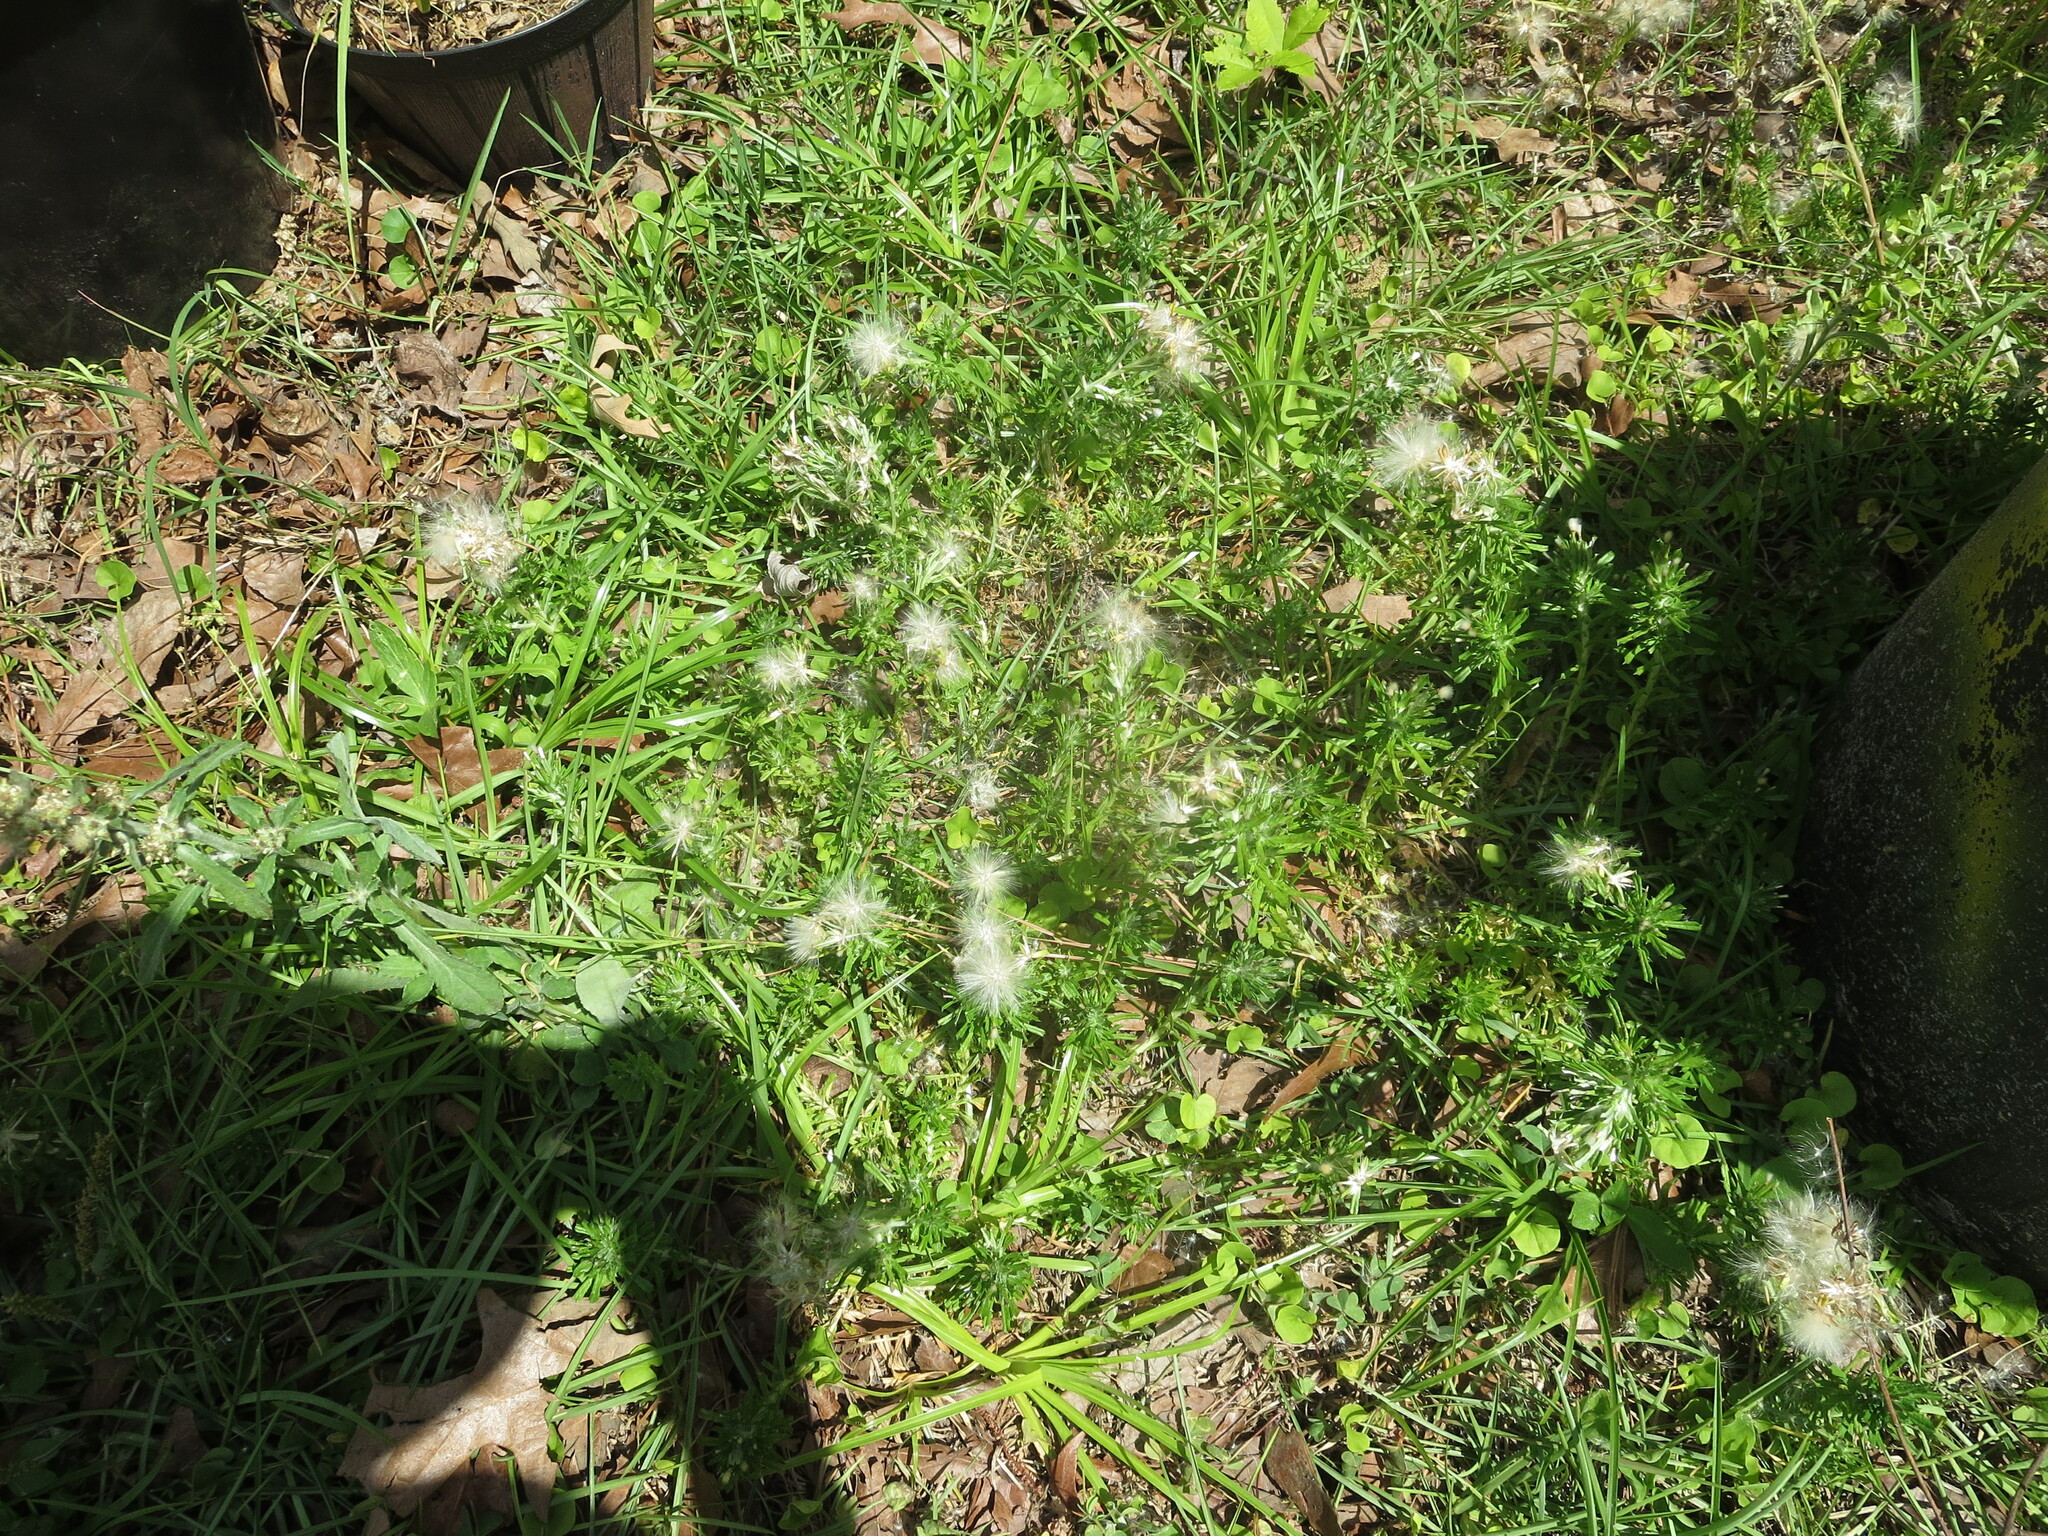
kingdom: Plantae
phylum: Tracheophyta
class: Magnoliopsida
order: Asterales
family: Asteraceae
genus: Facelis
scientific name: Facelis retusa
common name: Annual trampweed
